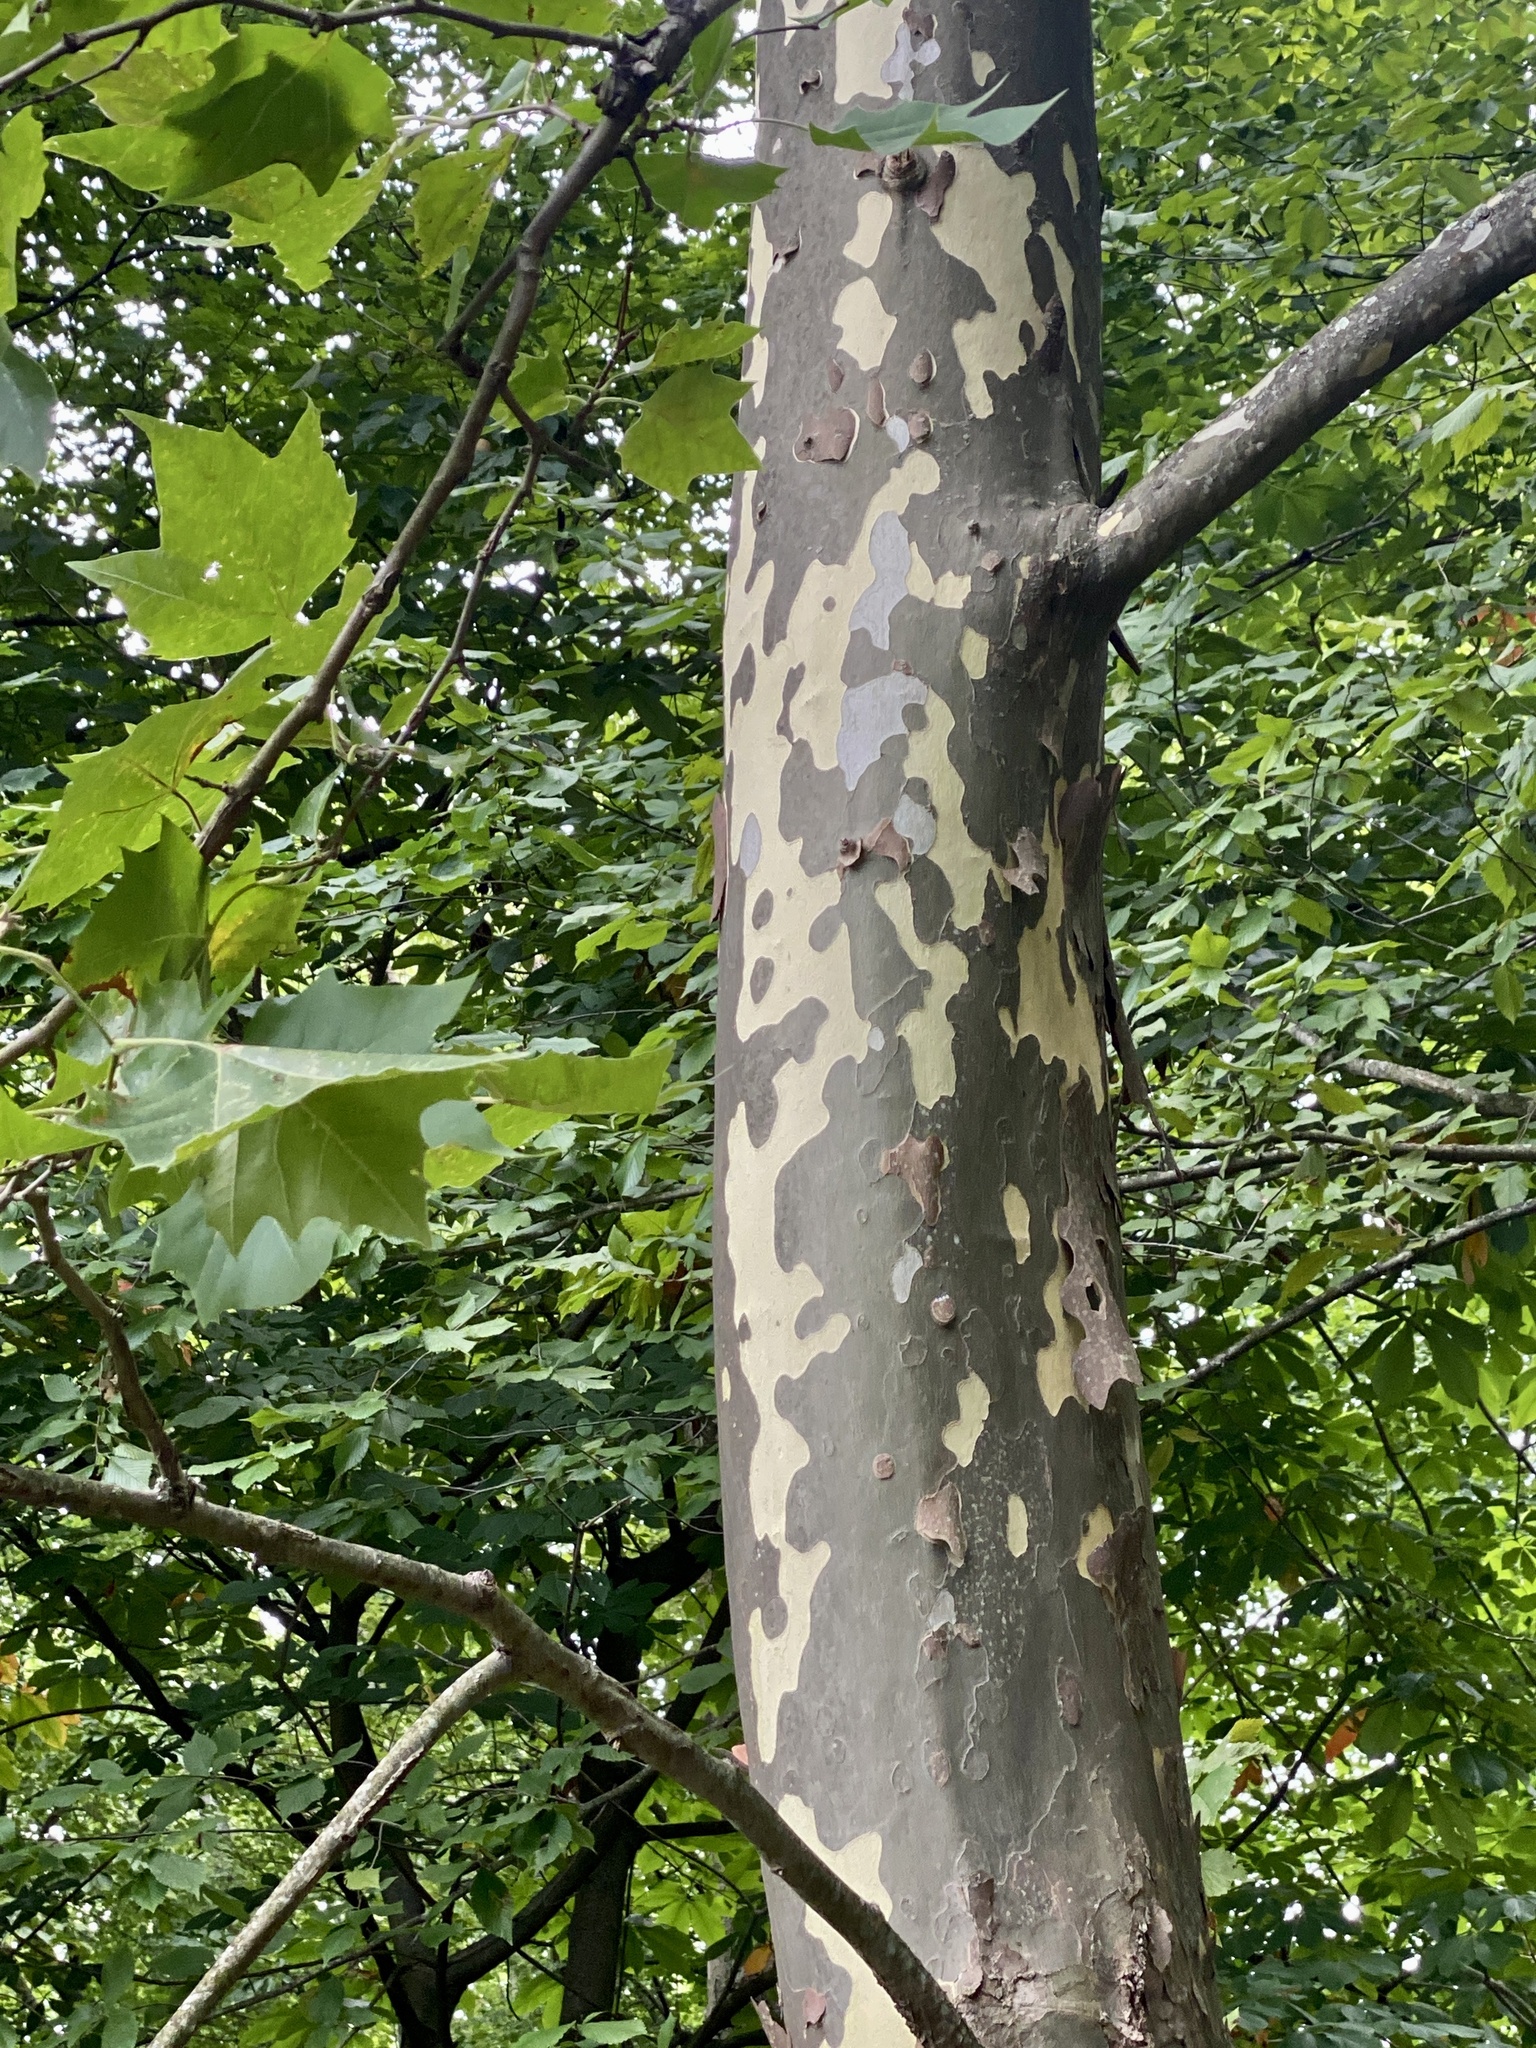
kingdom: Plantae
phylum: Tracheophyta
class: Magnoliopsida
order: Proteales
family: Platanaceae
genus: Platanus
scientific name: Platanus occidentalis
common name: American sycamore
